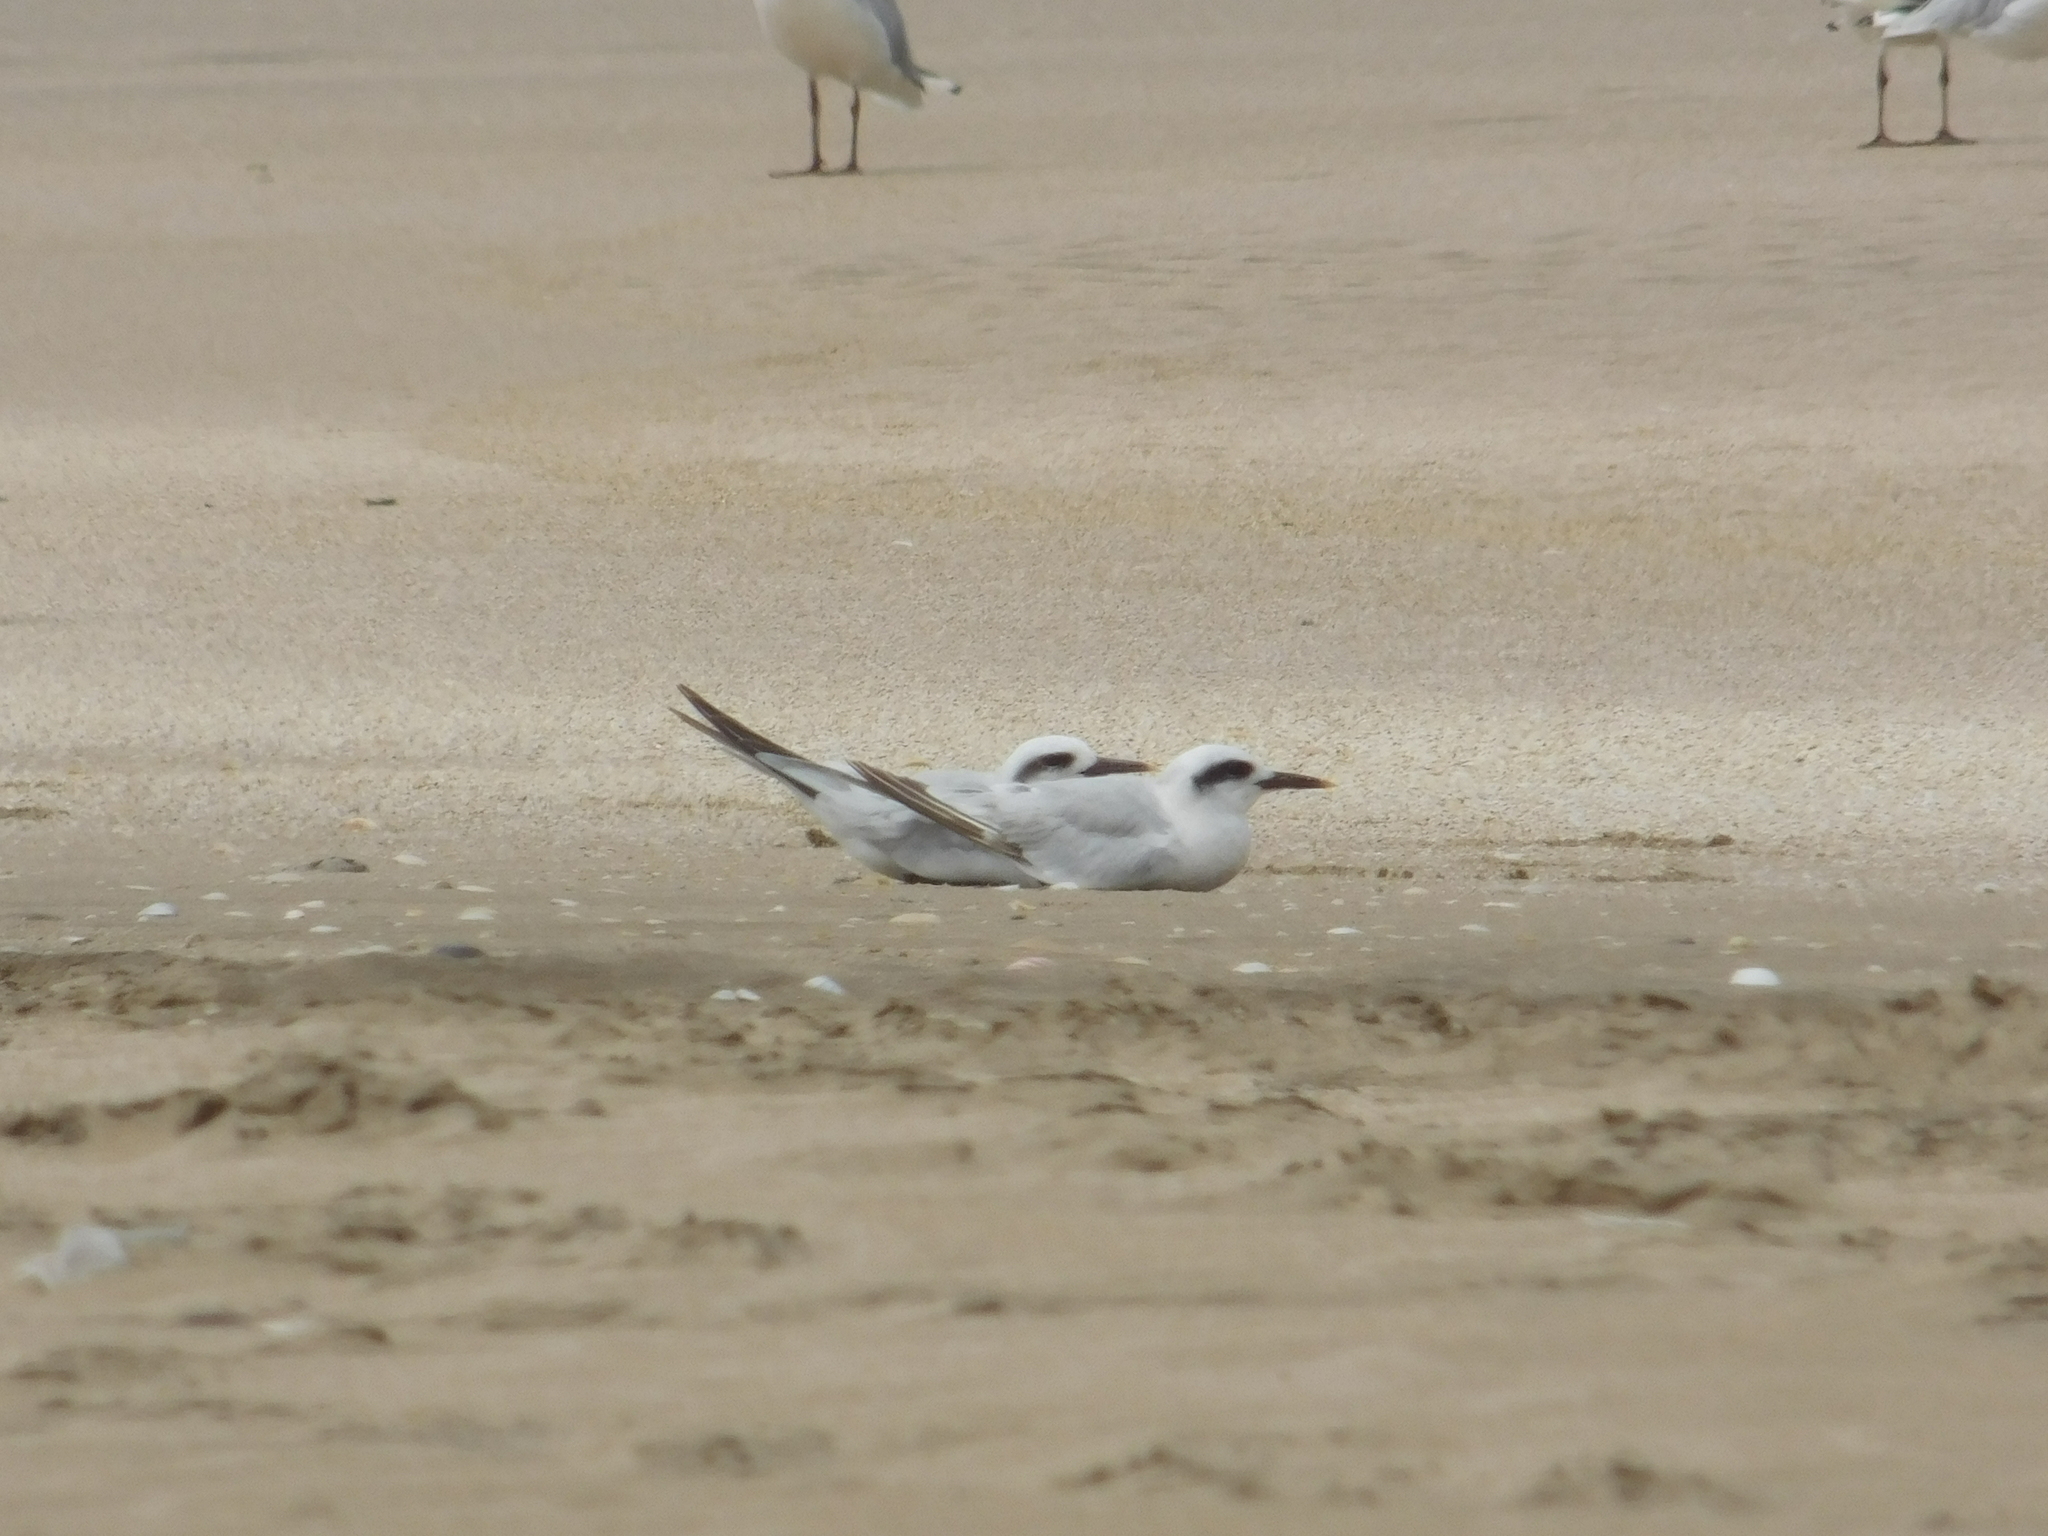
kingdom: Animalia
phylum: Chordata
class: Aves
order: Charadriiformes
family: Laridae
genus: Sterna
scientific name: Sterna trudeaui
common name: Snowy-crowned tern
